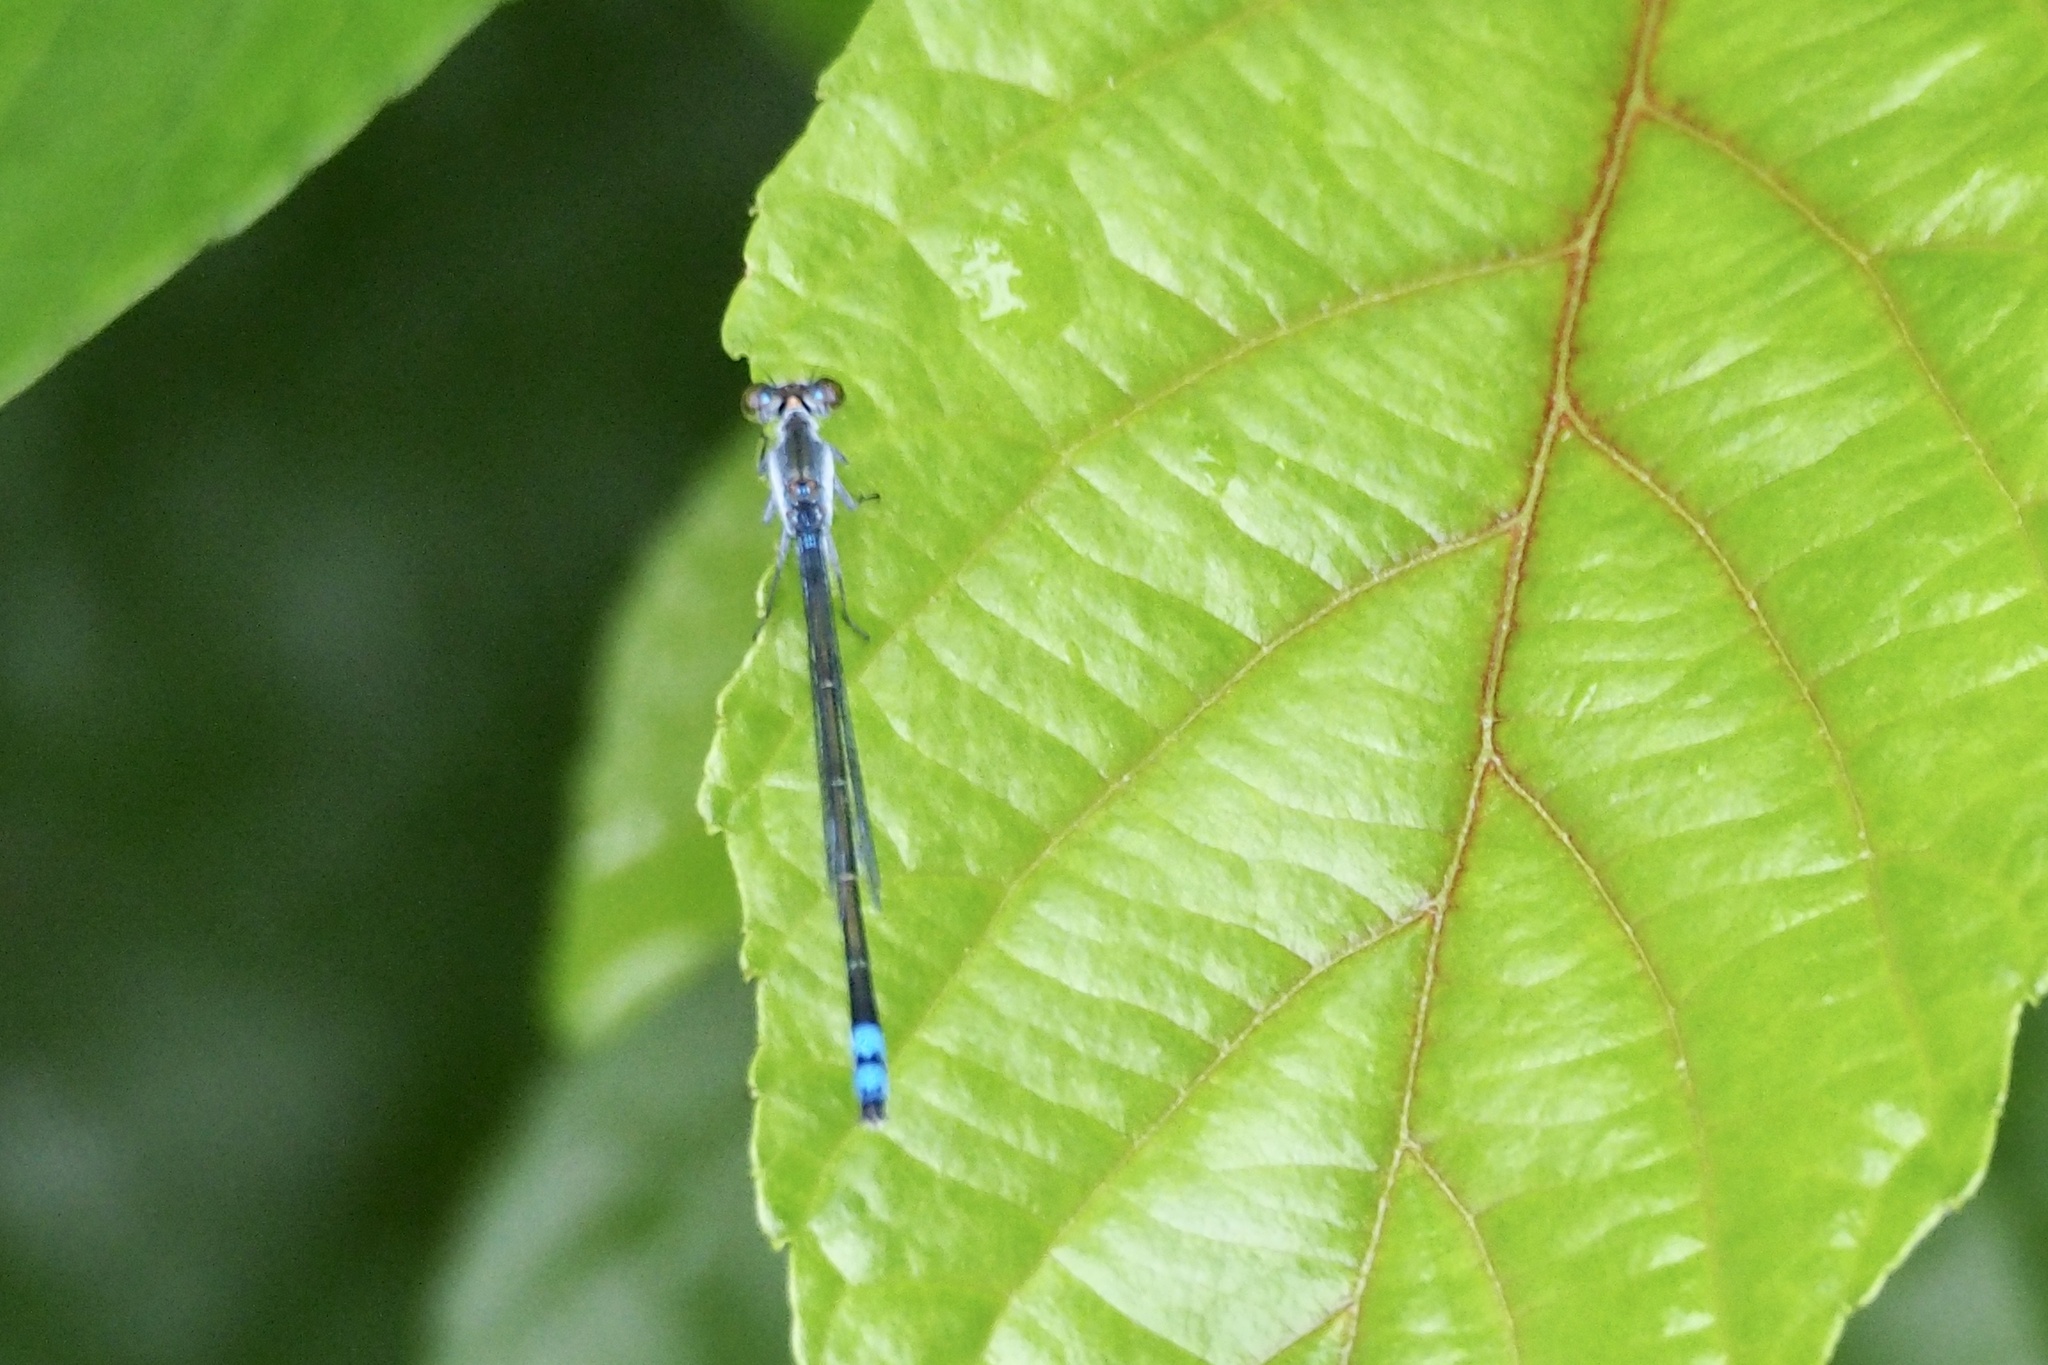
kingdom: Animalia
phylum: Arthropoda
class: Insecta
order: Odonata
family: Coenagrionidae
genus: Paracercion
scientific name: Paracercion calamorum
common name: Dusky lilysquatter
